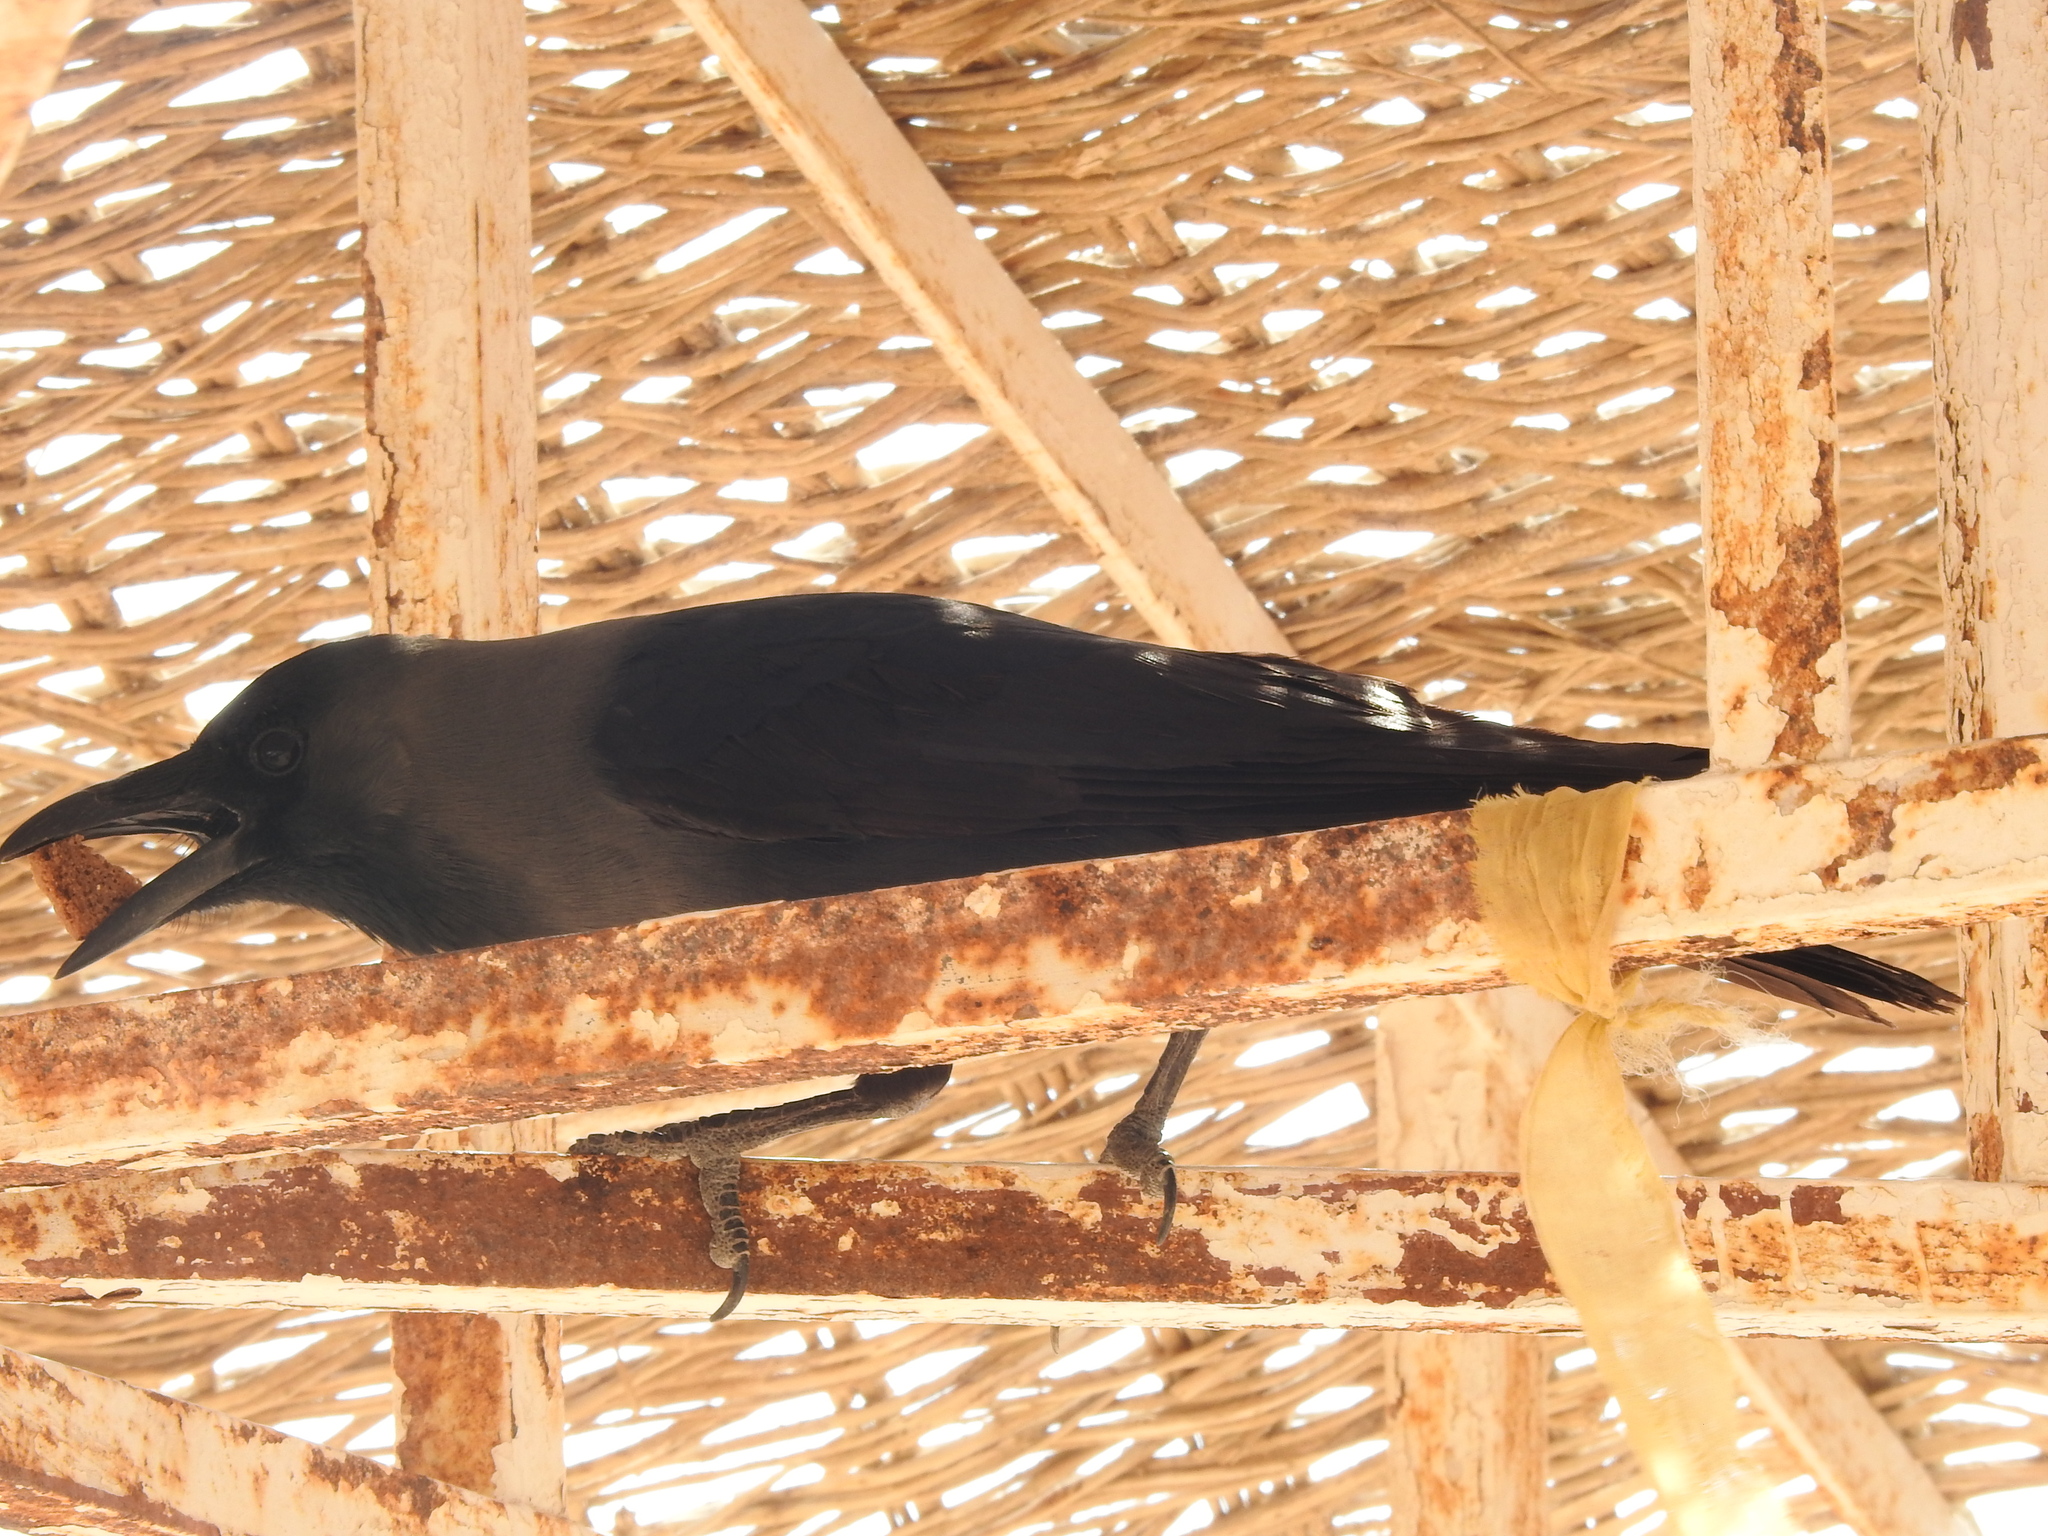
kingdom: Animalia
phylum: Chordata
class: Aves
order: Passeriformes
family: Corvidae
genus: Corvus
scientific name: Corvus splendens
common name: House crow
